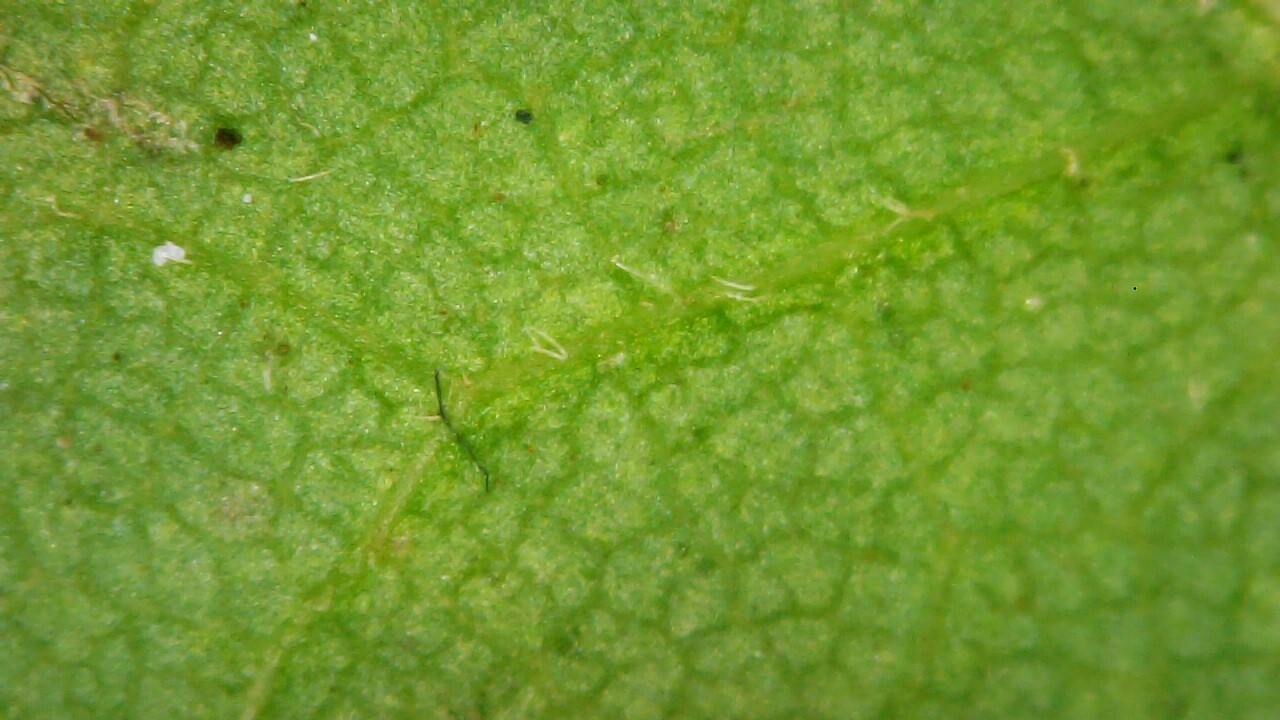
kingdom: Plantae
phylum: Tracheophyta
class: Magnoliopsida
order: Fagales
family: Fagaceae
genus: Quercus
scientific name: Quercus muehlenbergii
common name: Chinkapin oak
